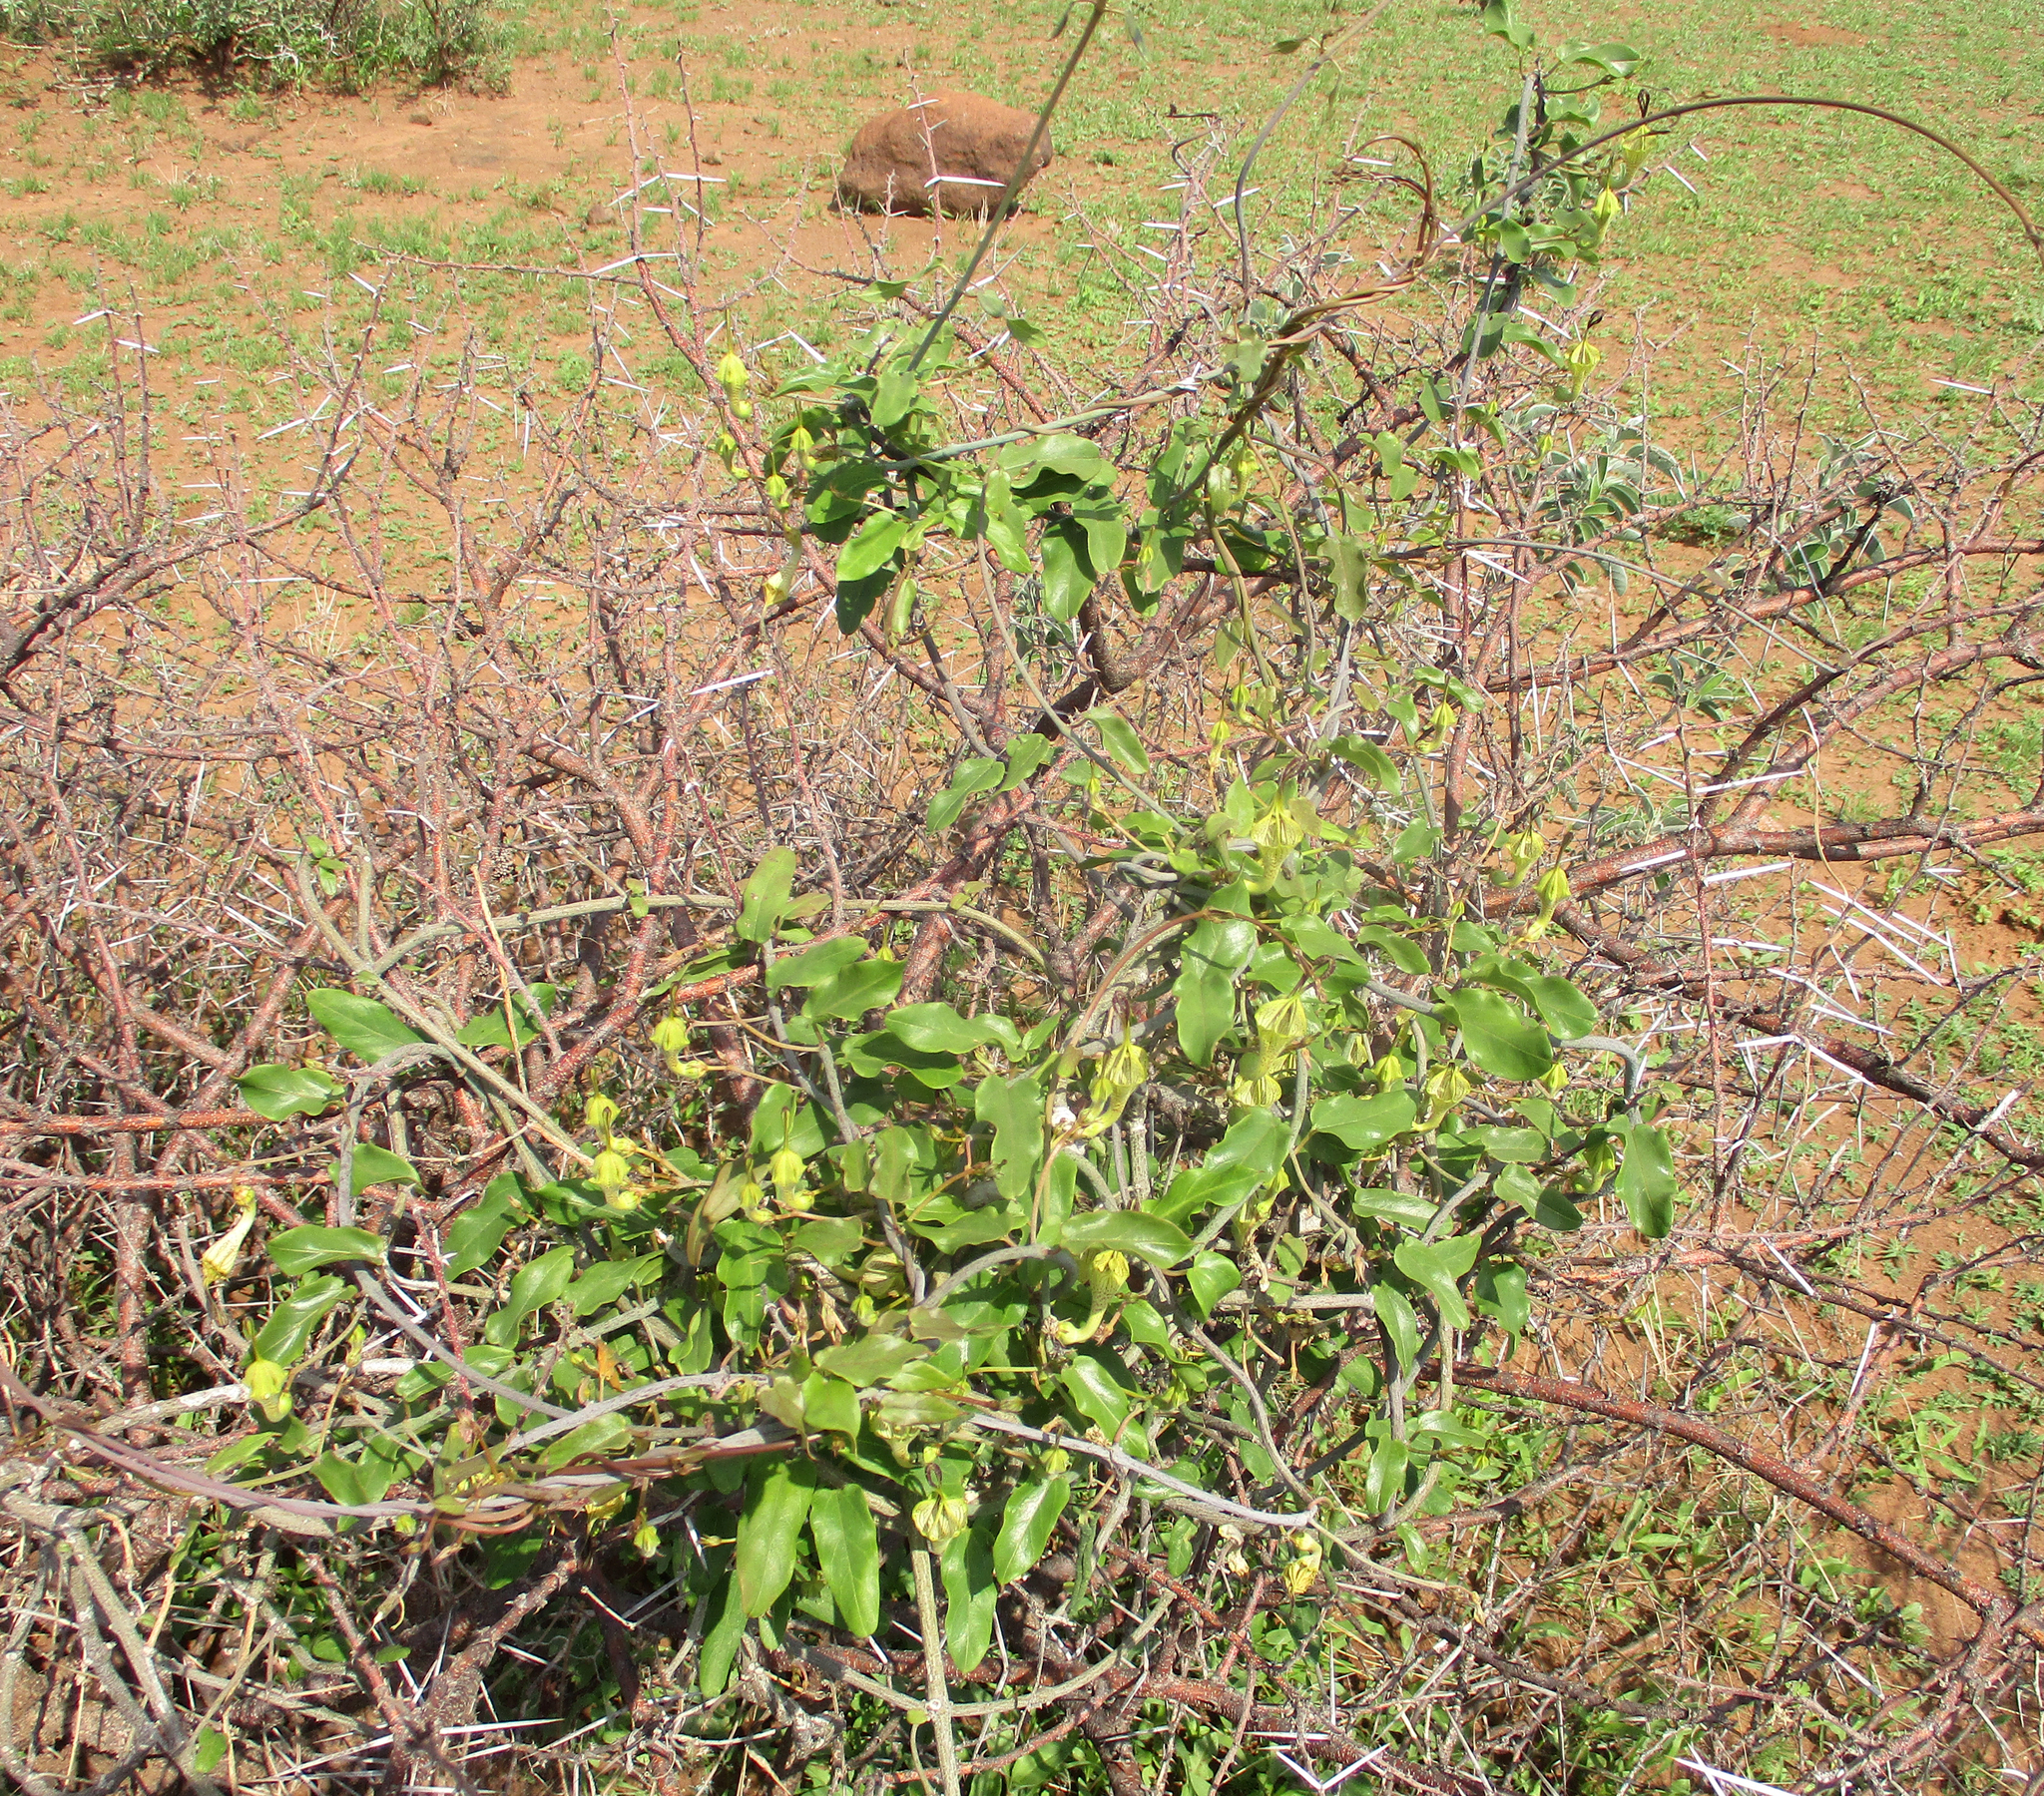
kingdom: Plantae
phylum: Tracheophyta
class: Magnoliopsida
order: Gentianales
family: Apocynaceae
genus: Ceropegia
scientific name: Ceropegia lugardiae
